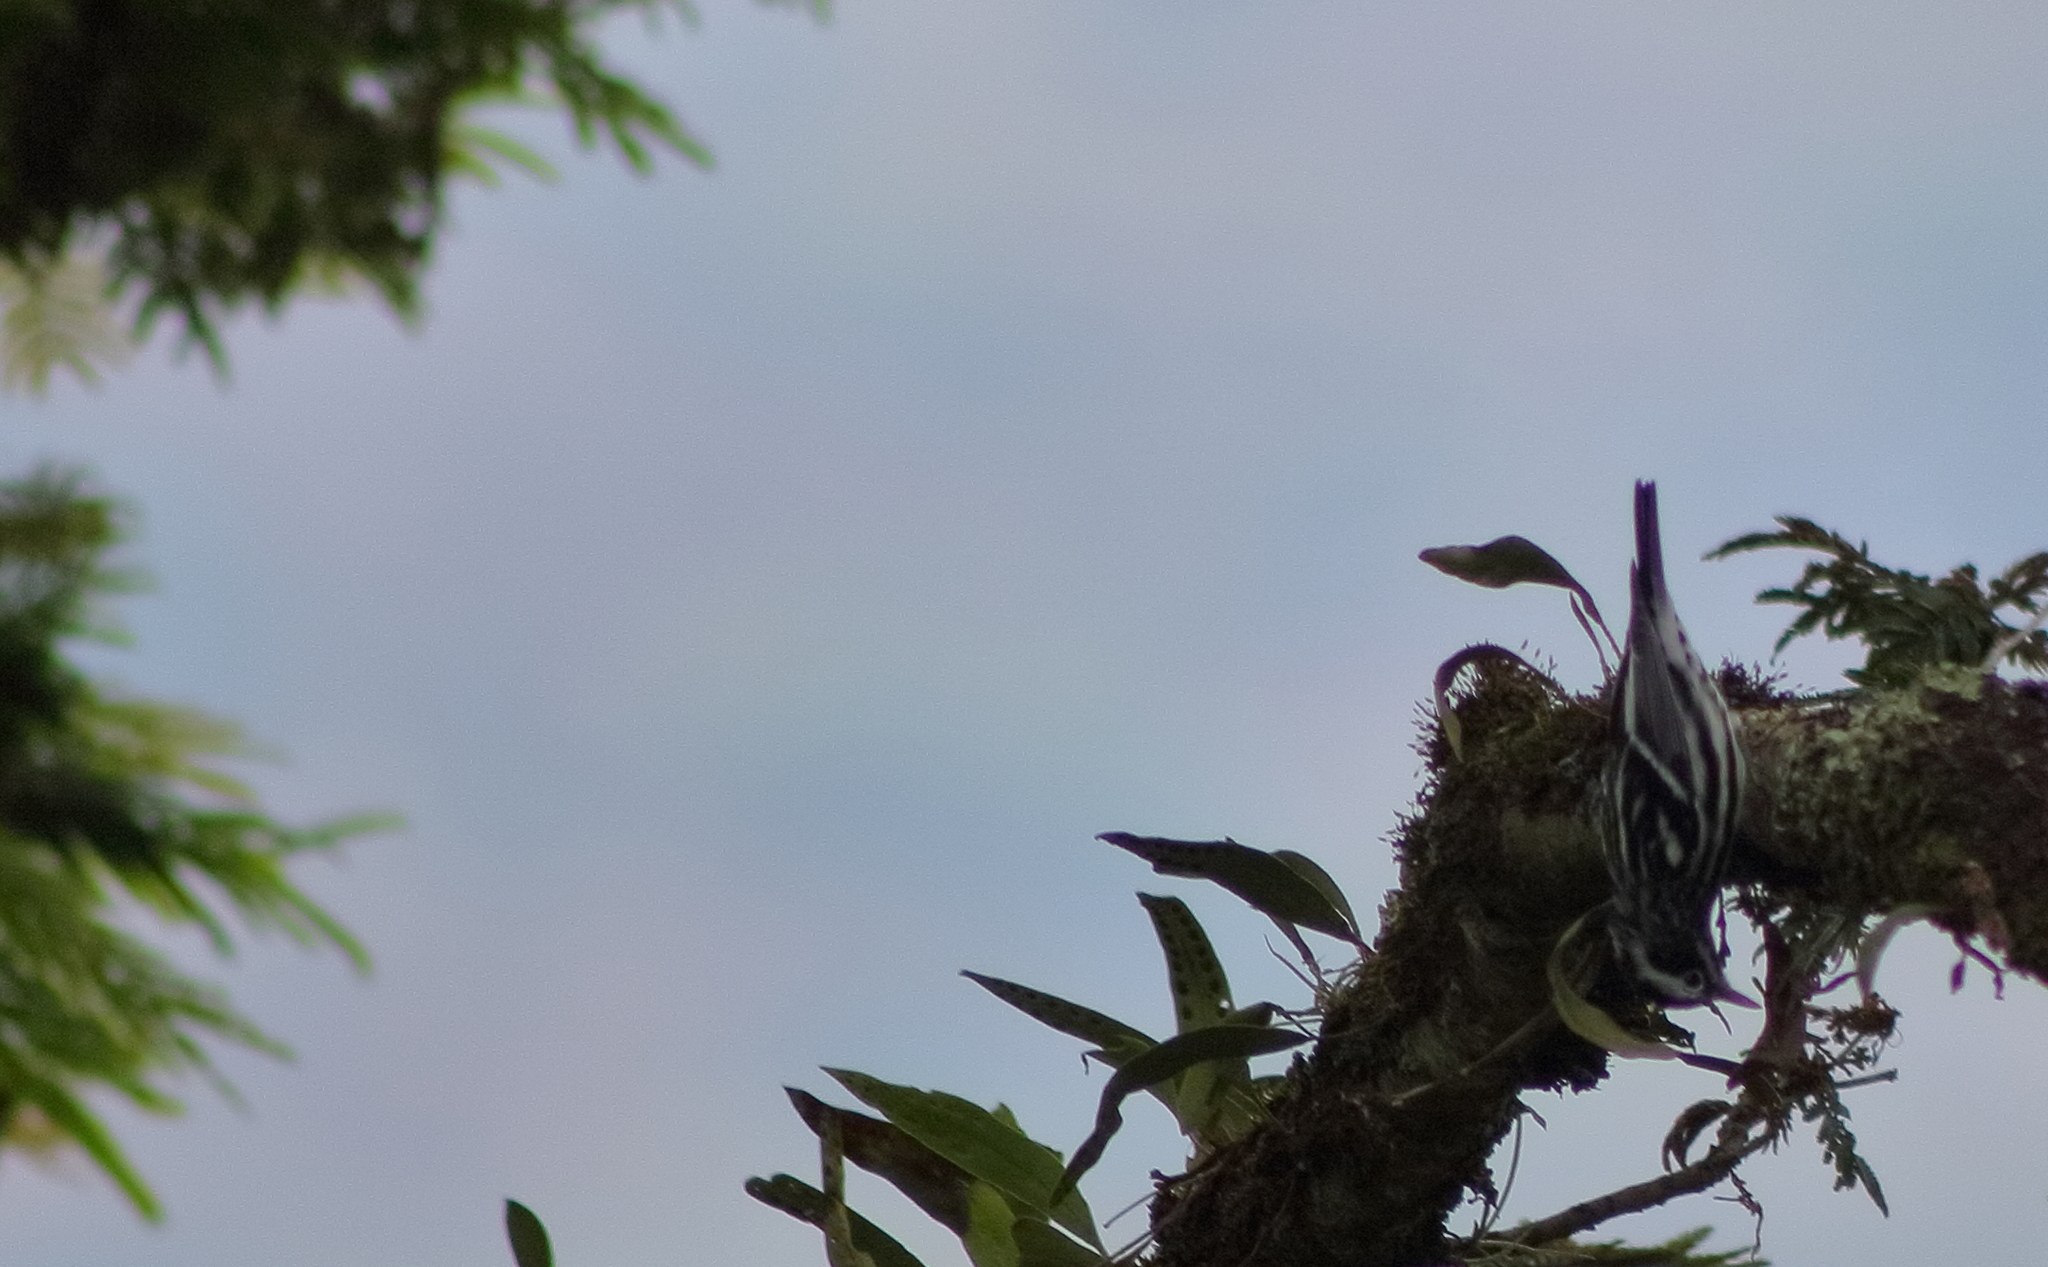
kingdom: Animalia
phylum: Chordata
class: Aves
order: Passeriformes
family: Parulidae
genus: Mniotilta
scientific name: Mniotilta varia
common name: Black-and-white warbler
